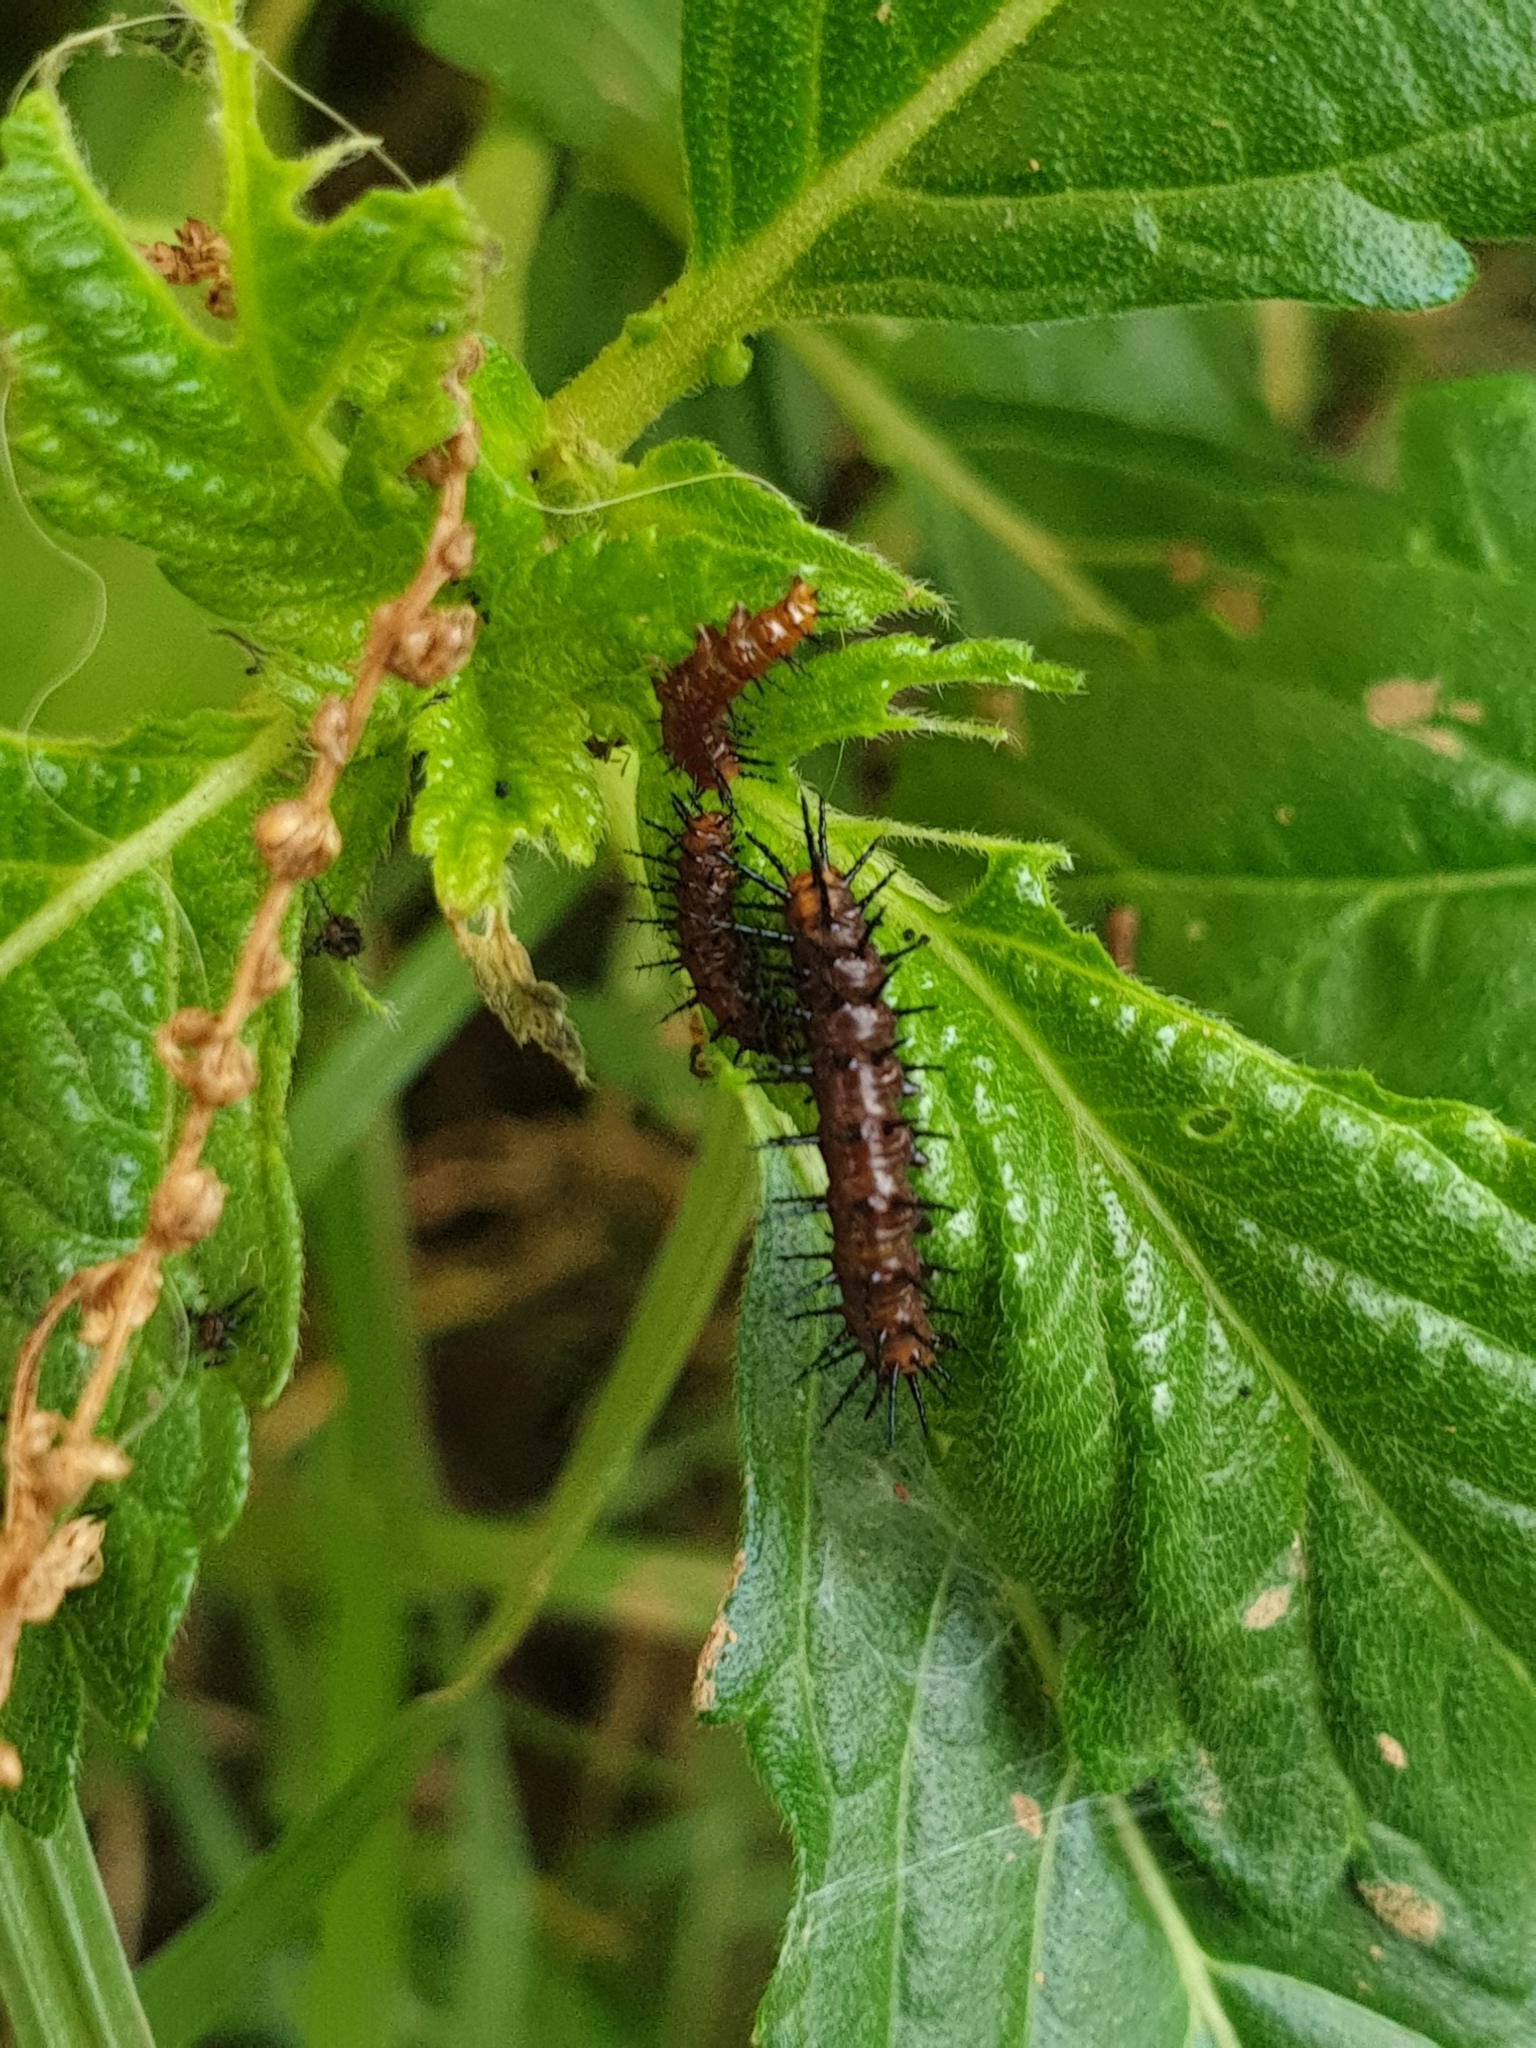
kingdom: Animalia
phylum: Arthropoda
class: Insecta
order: Lepidoptera
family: Nymphalidae
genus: Acraea
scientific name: Acraea terpsicore
